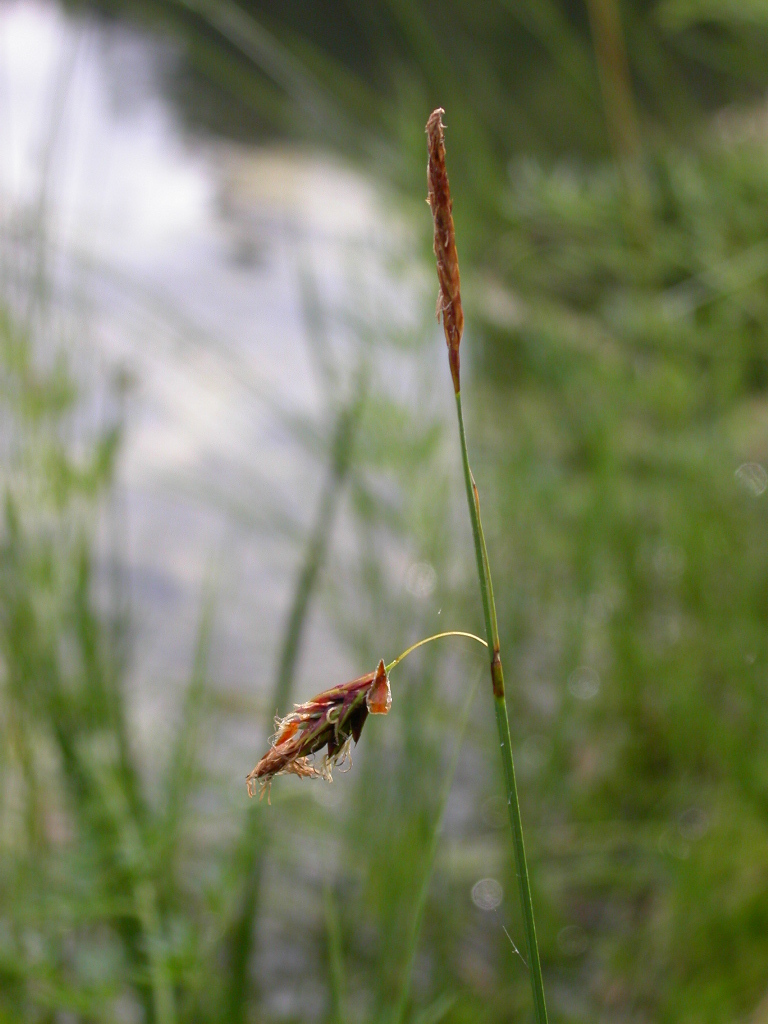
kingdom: Plantae
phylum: Tracheophyta
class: Liliopsida
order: Poales
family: Cyperaceae
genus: Carex
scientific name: Carex limosa
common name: Bog sedge
